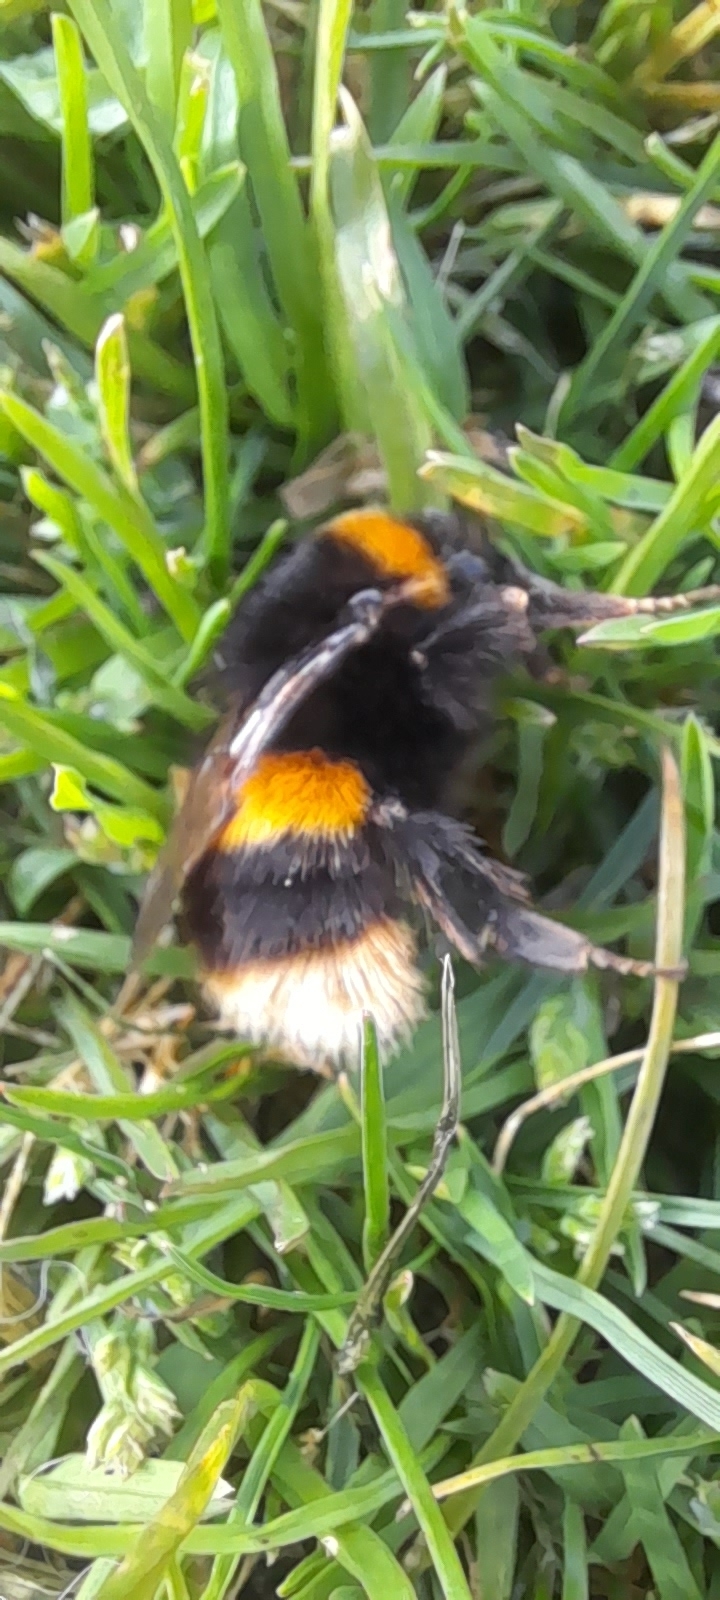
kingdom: Animalia
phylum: Arthropoda
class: Insecta
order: Hymenoptera
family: Apidae
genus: Bombus
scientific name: Bombus terrestris
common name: Buff-tailed bumblebee
